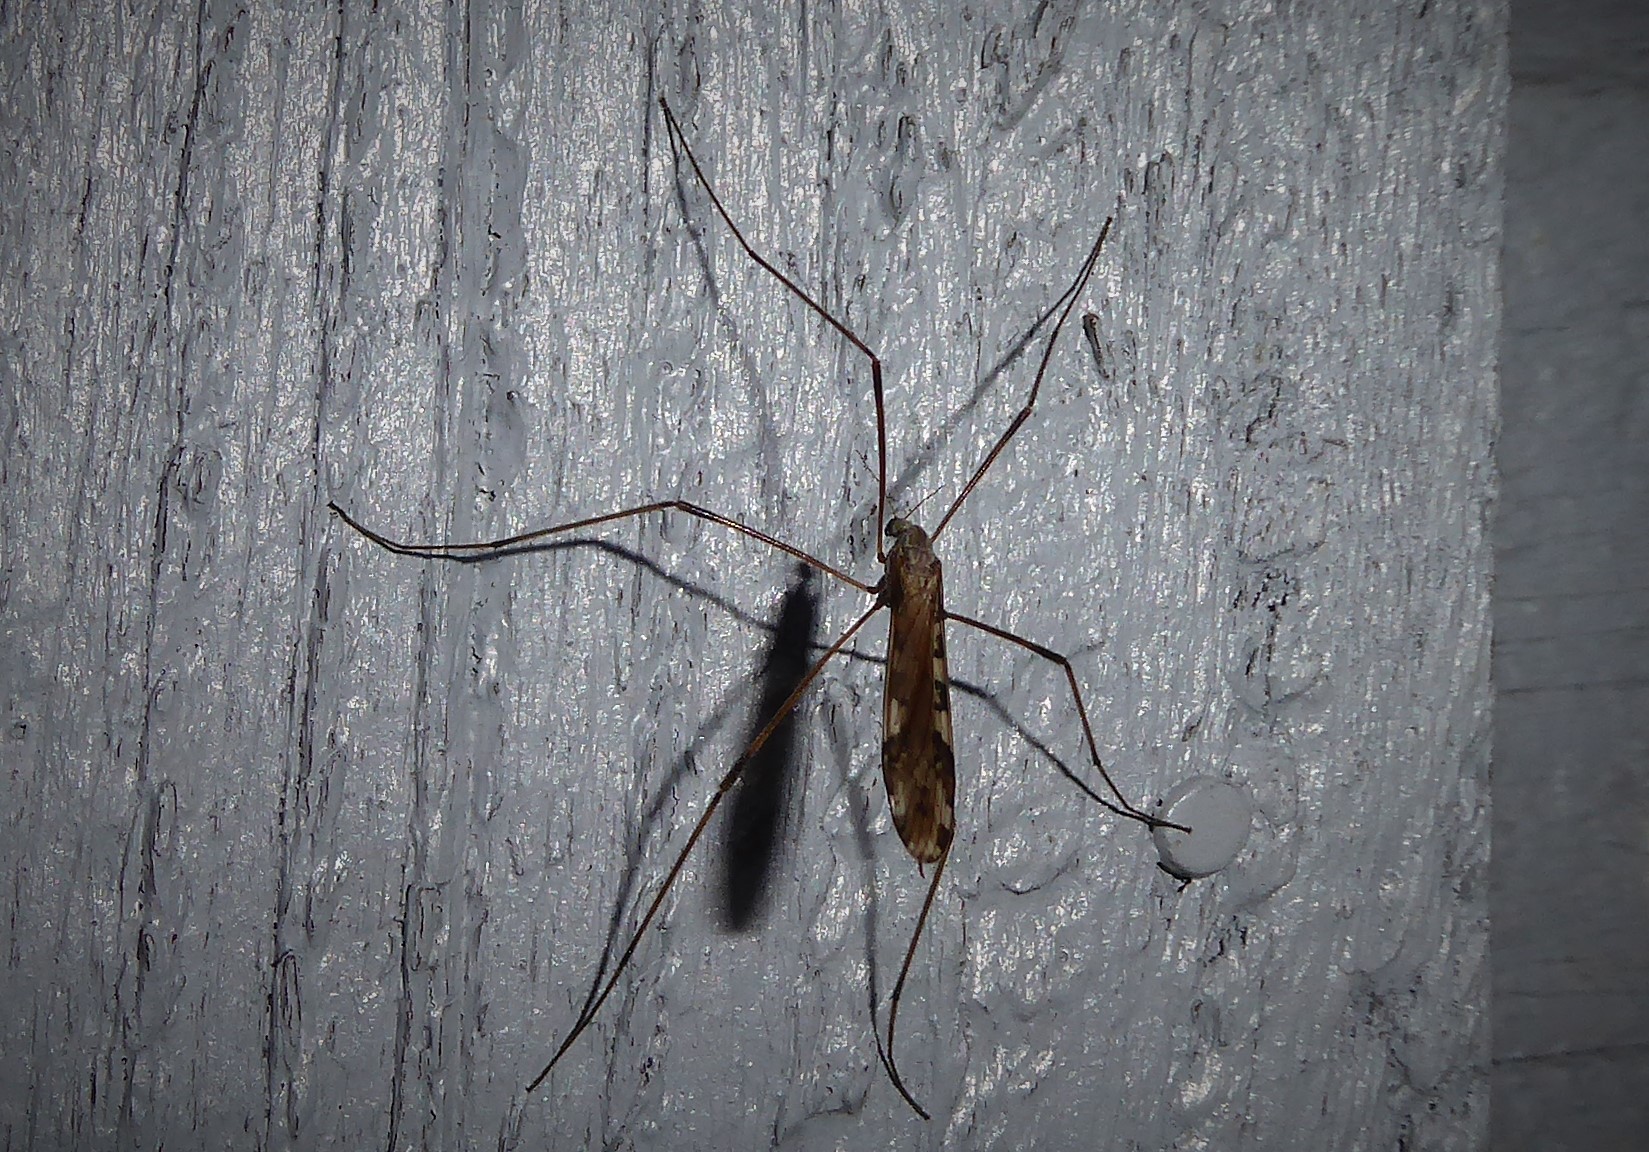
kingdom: Animalia
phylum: Arthropoda
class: Insecta
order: Diptera
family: Limoniidae
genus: Paralimnophila
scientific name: Paralimnophila skusei
